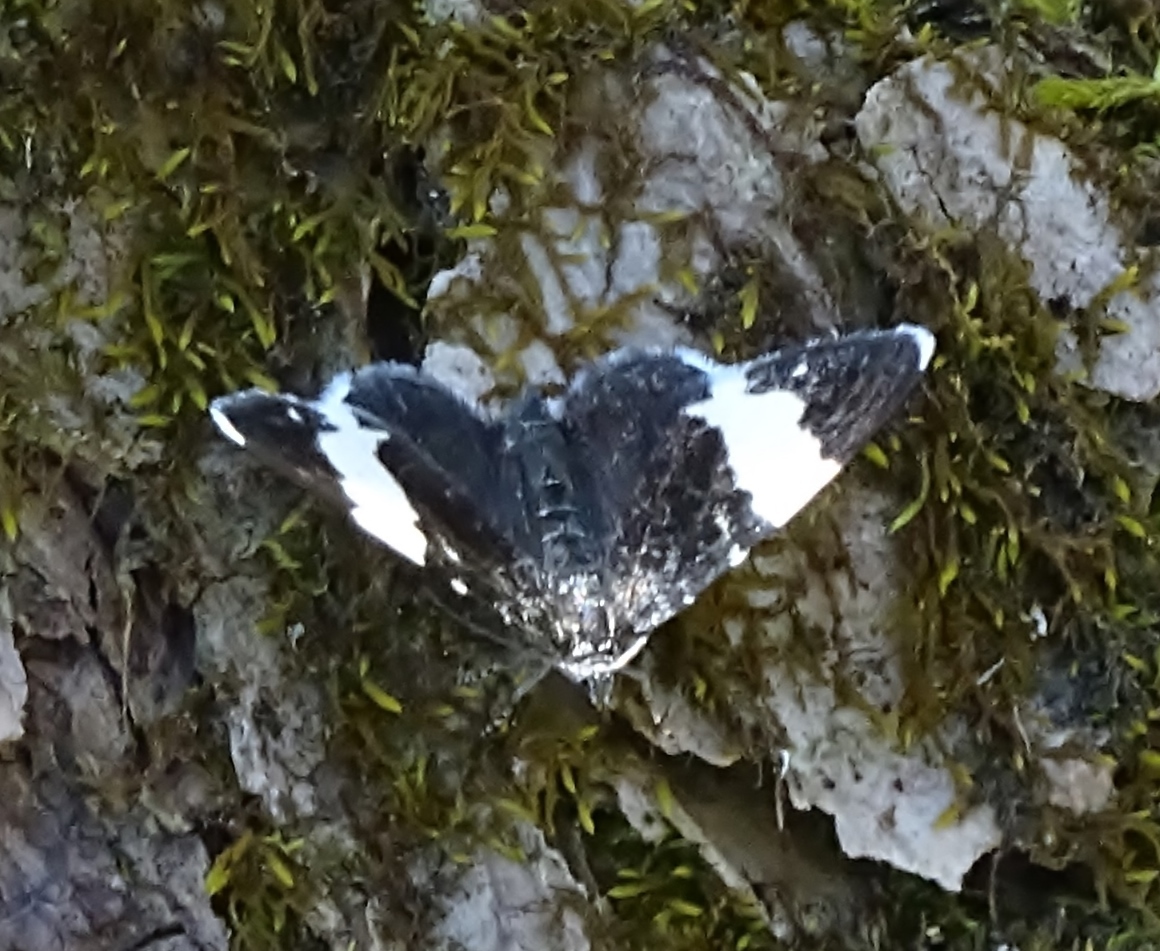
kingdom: Animalia
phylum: Arthropoda
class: Insecta
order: Lepidoptera
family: Geometridae
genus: Trichodezia
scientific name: Trichodezia albovittata
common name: White striped black
